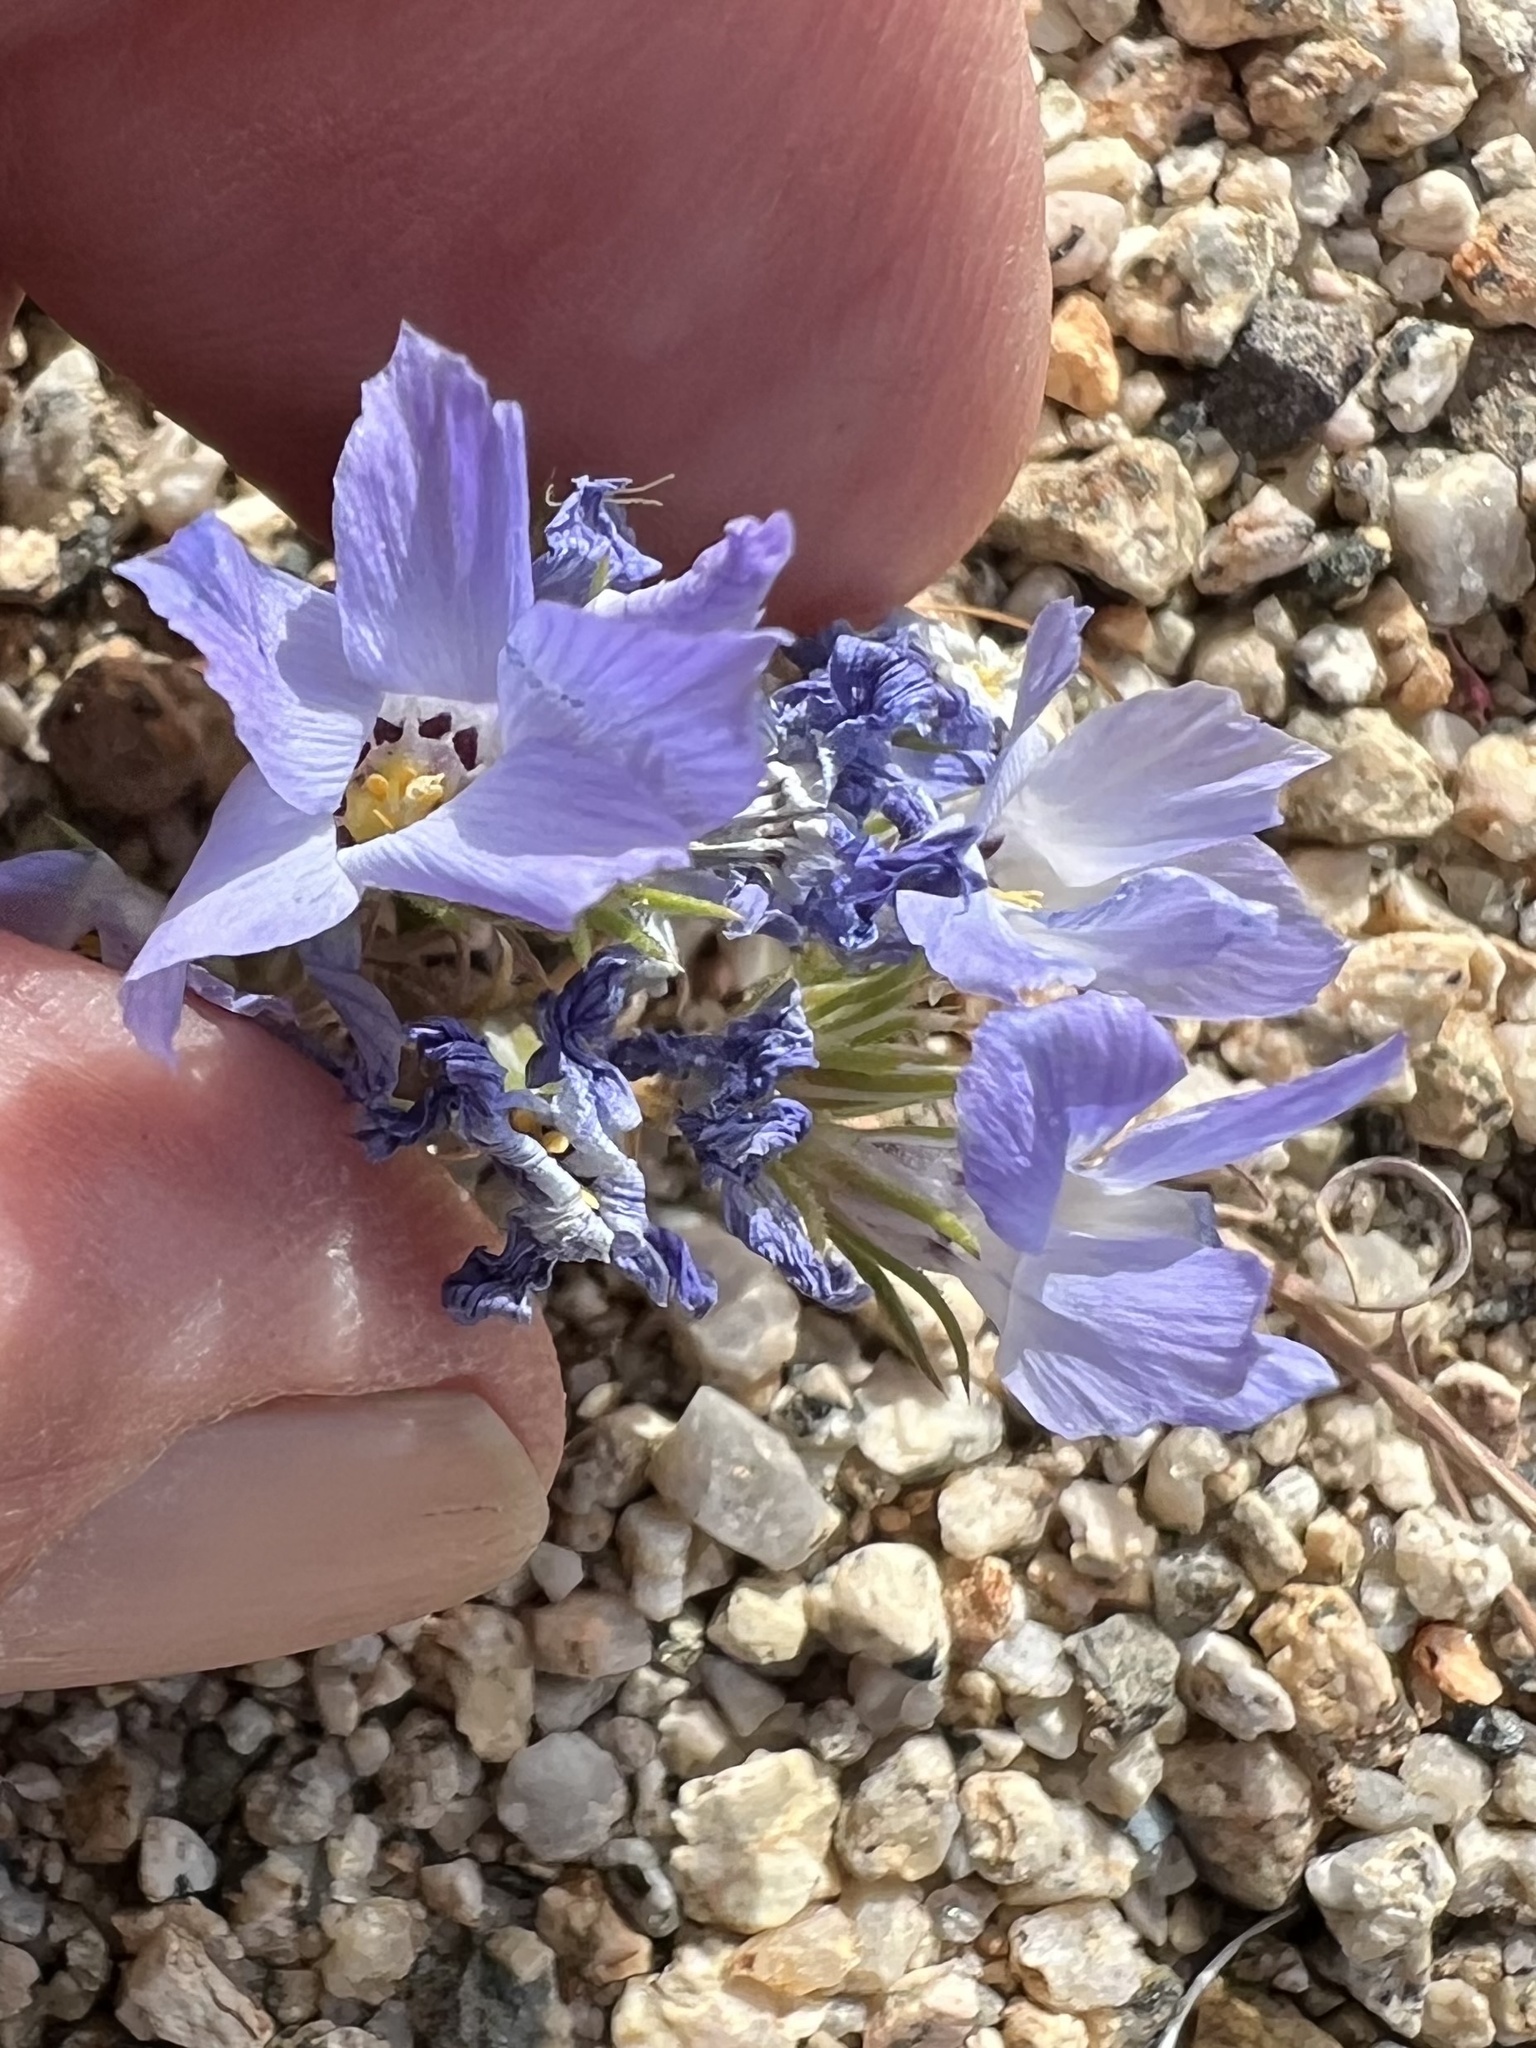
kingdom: Plantae
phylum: Tracheophyta
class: Magnoliopsida
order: Ericales
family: Polemoniaceae
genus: Linanthus
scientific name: Linanthus parryae
